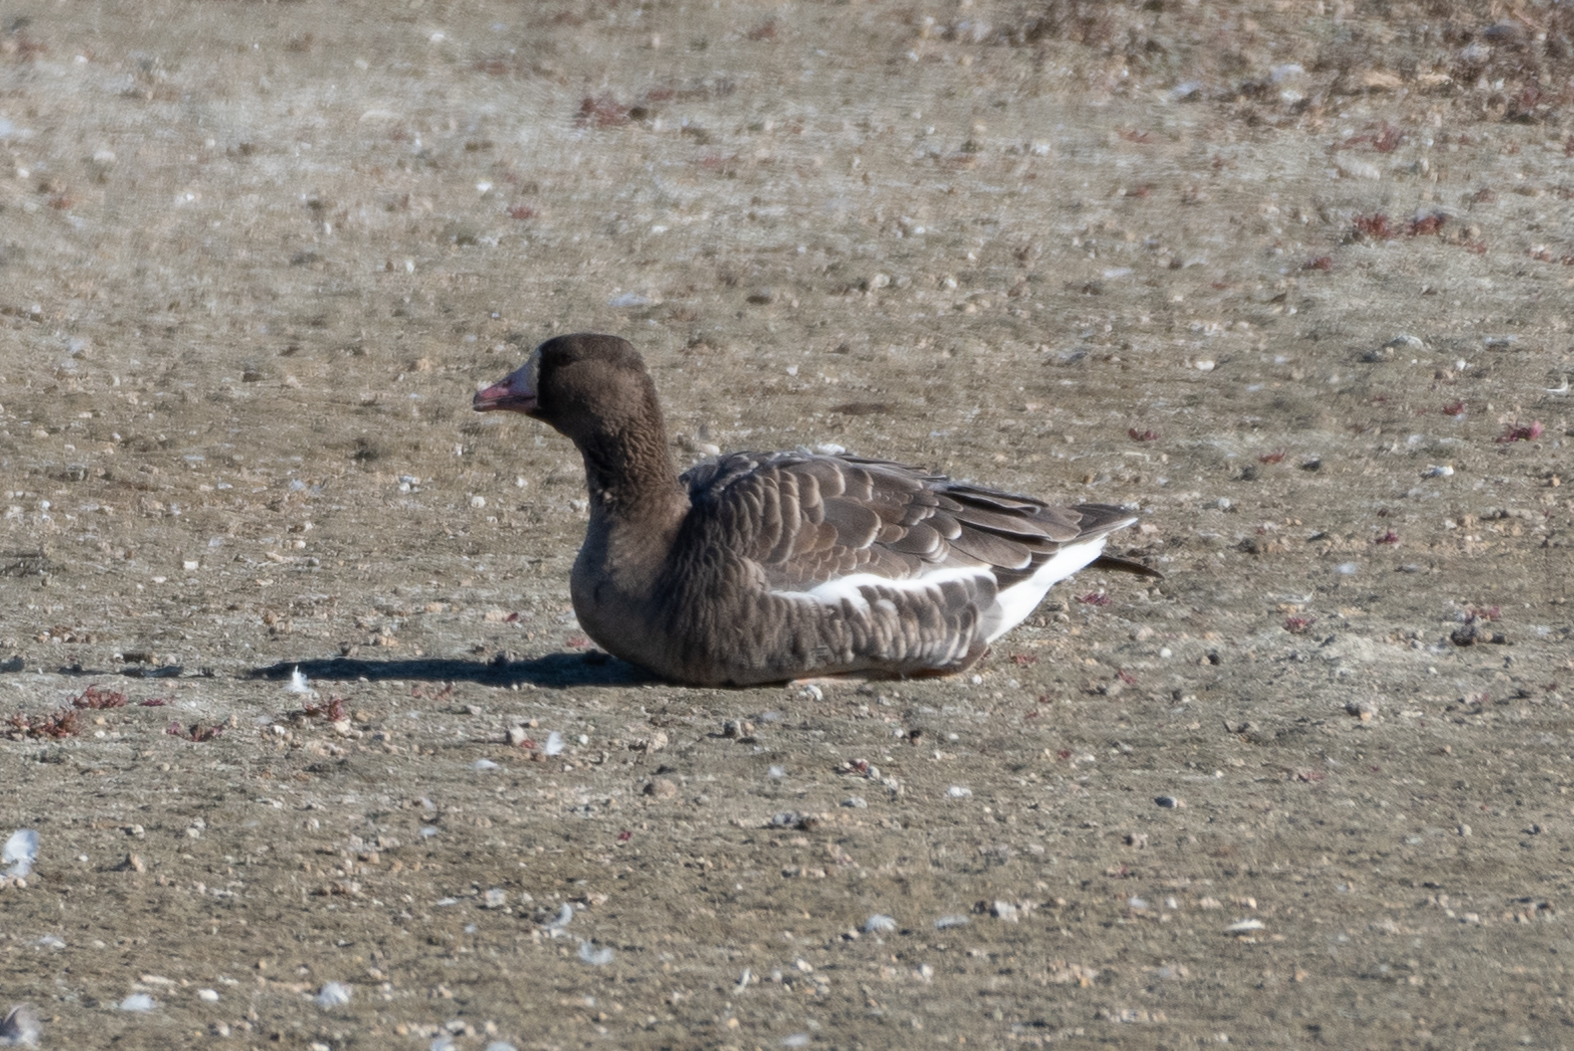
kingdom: Animalia
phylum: Chordata
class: Aves
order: Anseriformes
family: Anatidae
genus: Anser
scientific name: Anser albifrons
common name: Greater white-fronted goose
